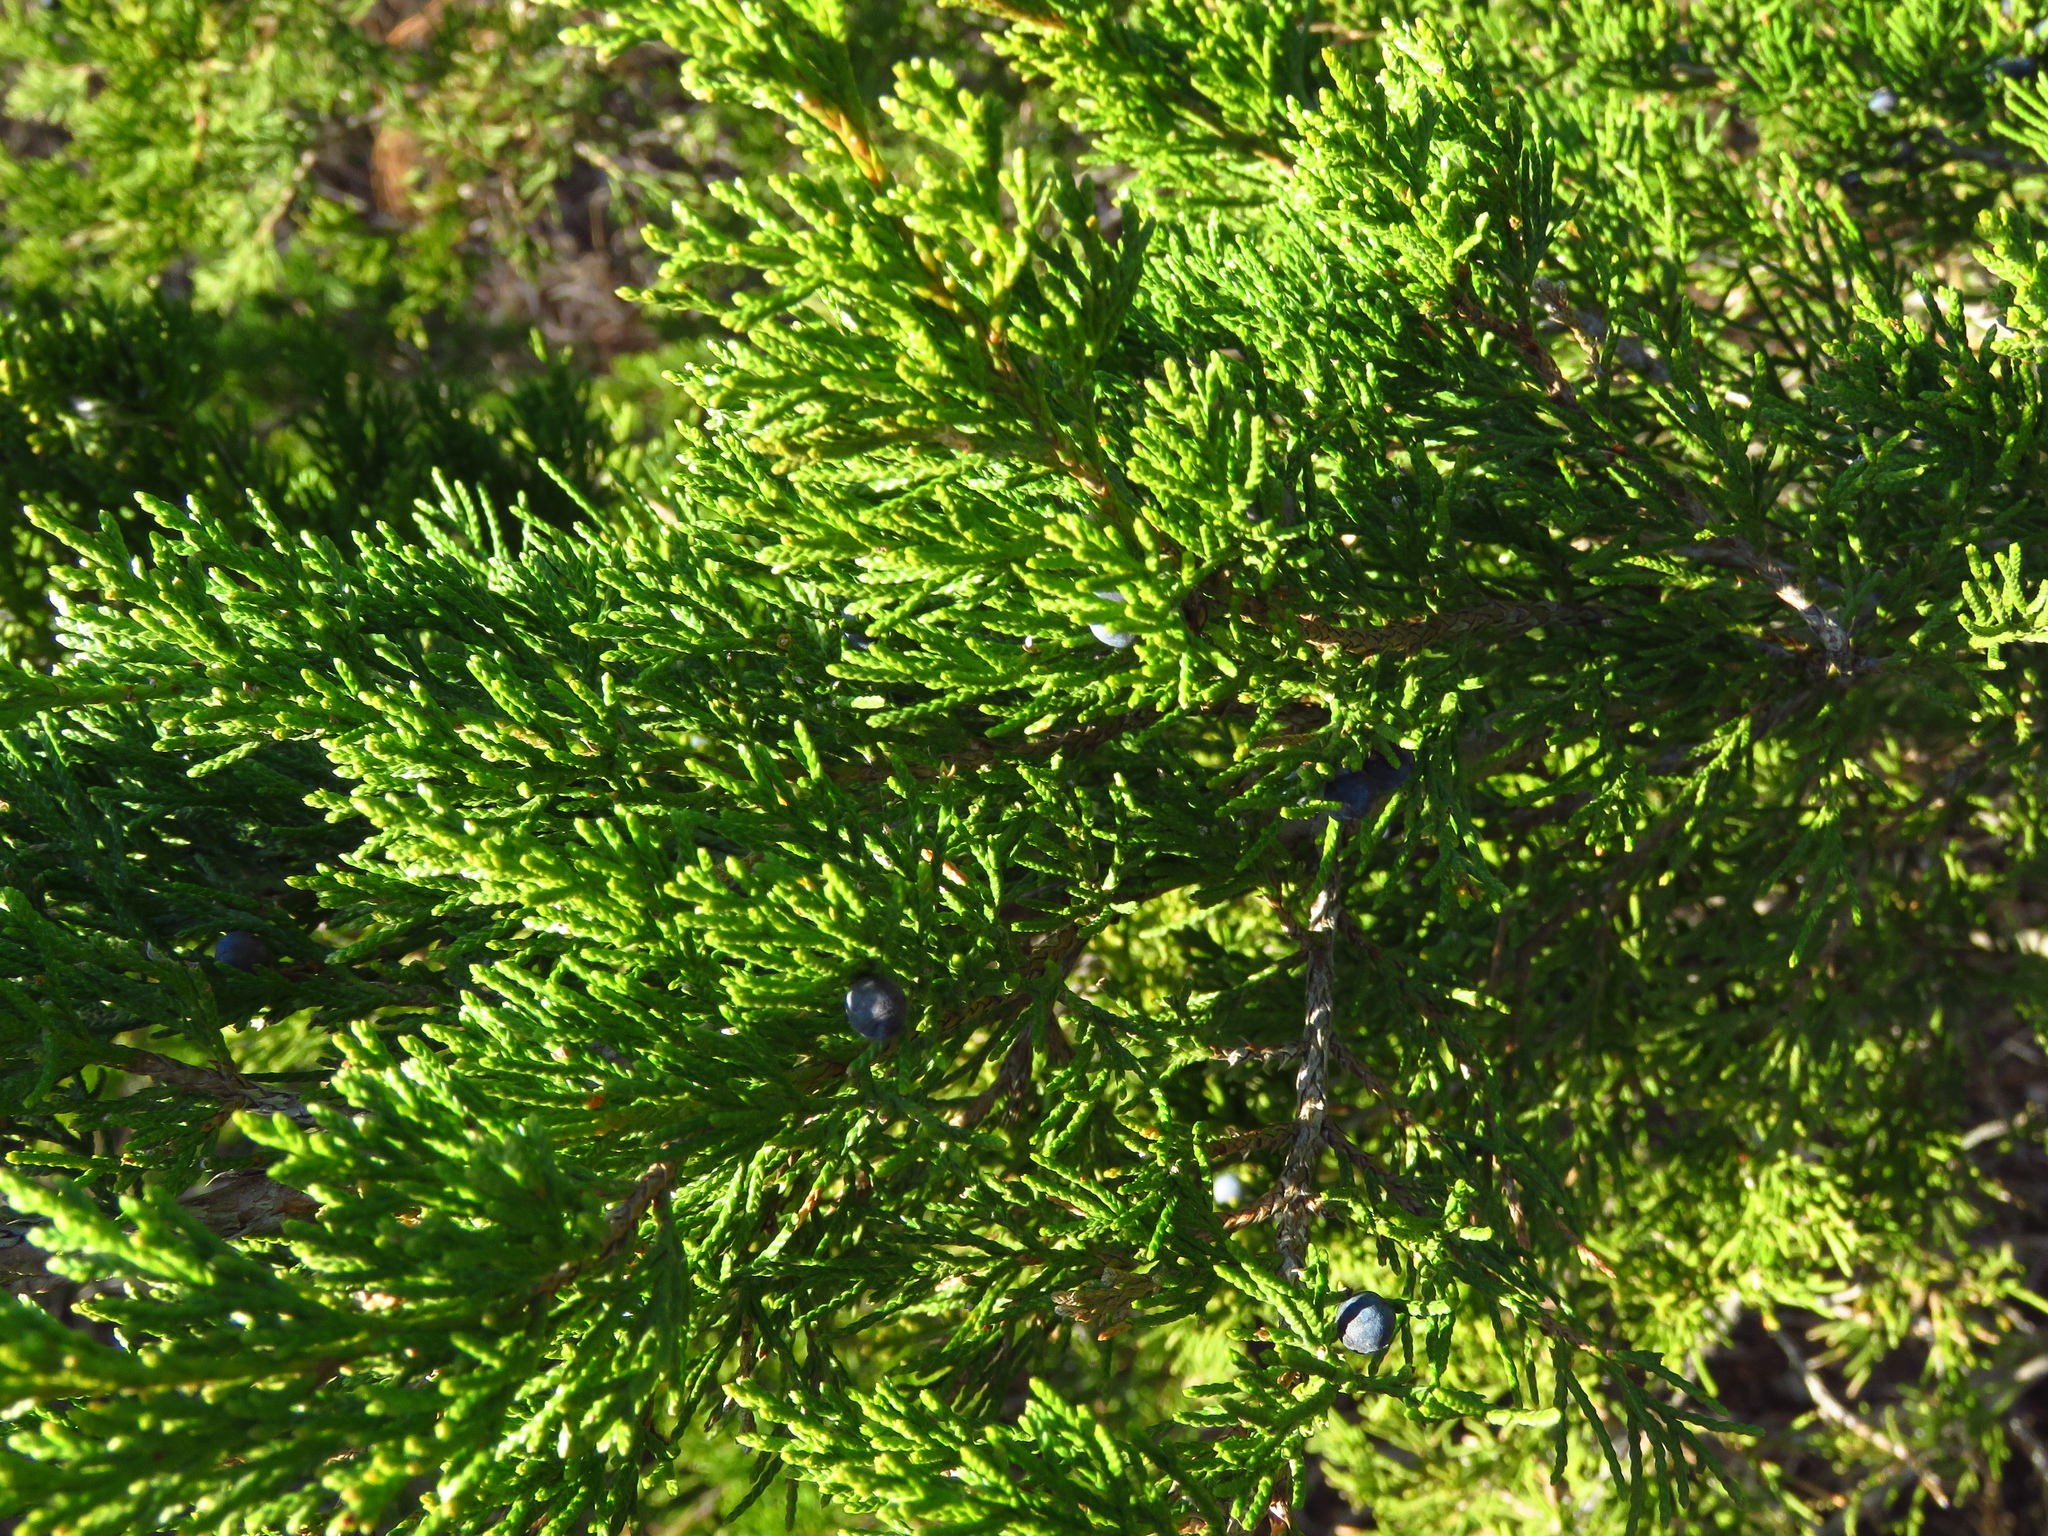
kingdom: Plantae
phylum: Tracheophyta
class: Pinopsida
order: Pinales
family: Cupressaceae
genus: Juniperus
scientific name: Juniperus virginiana
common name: Red juniper
